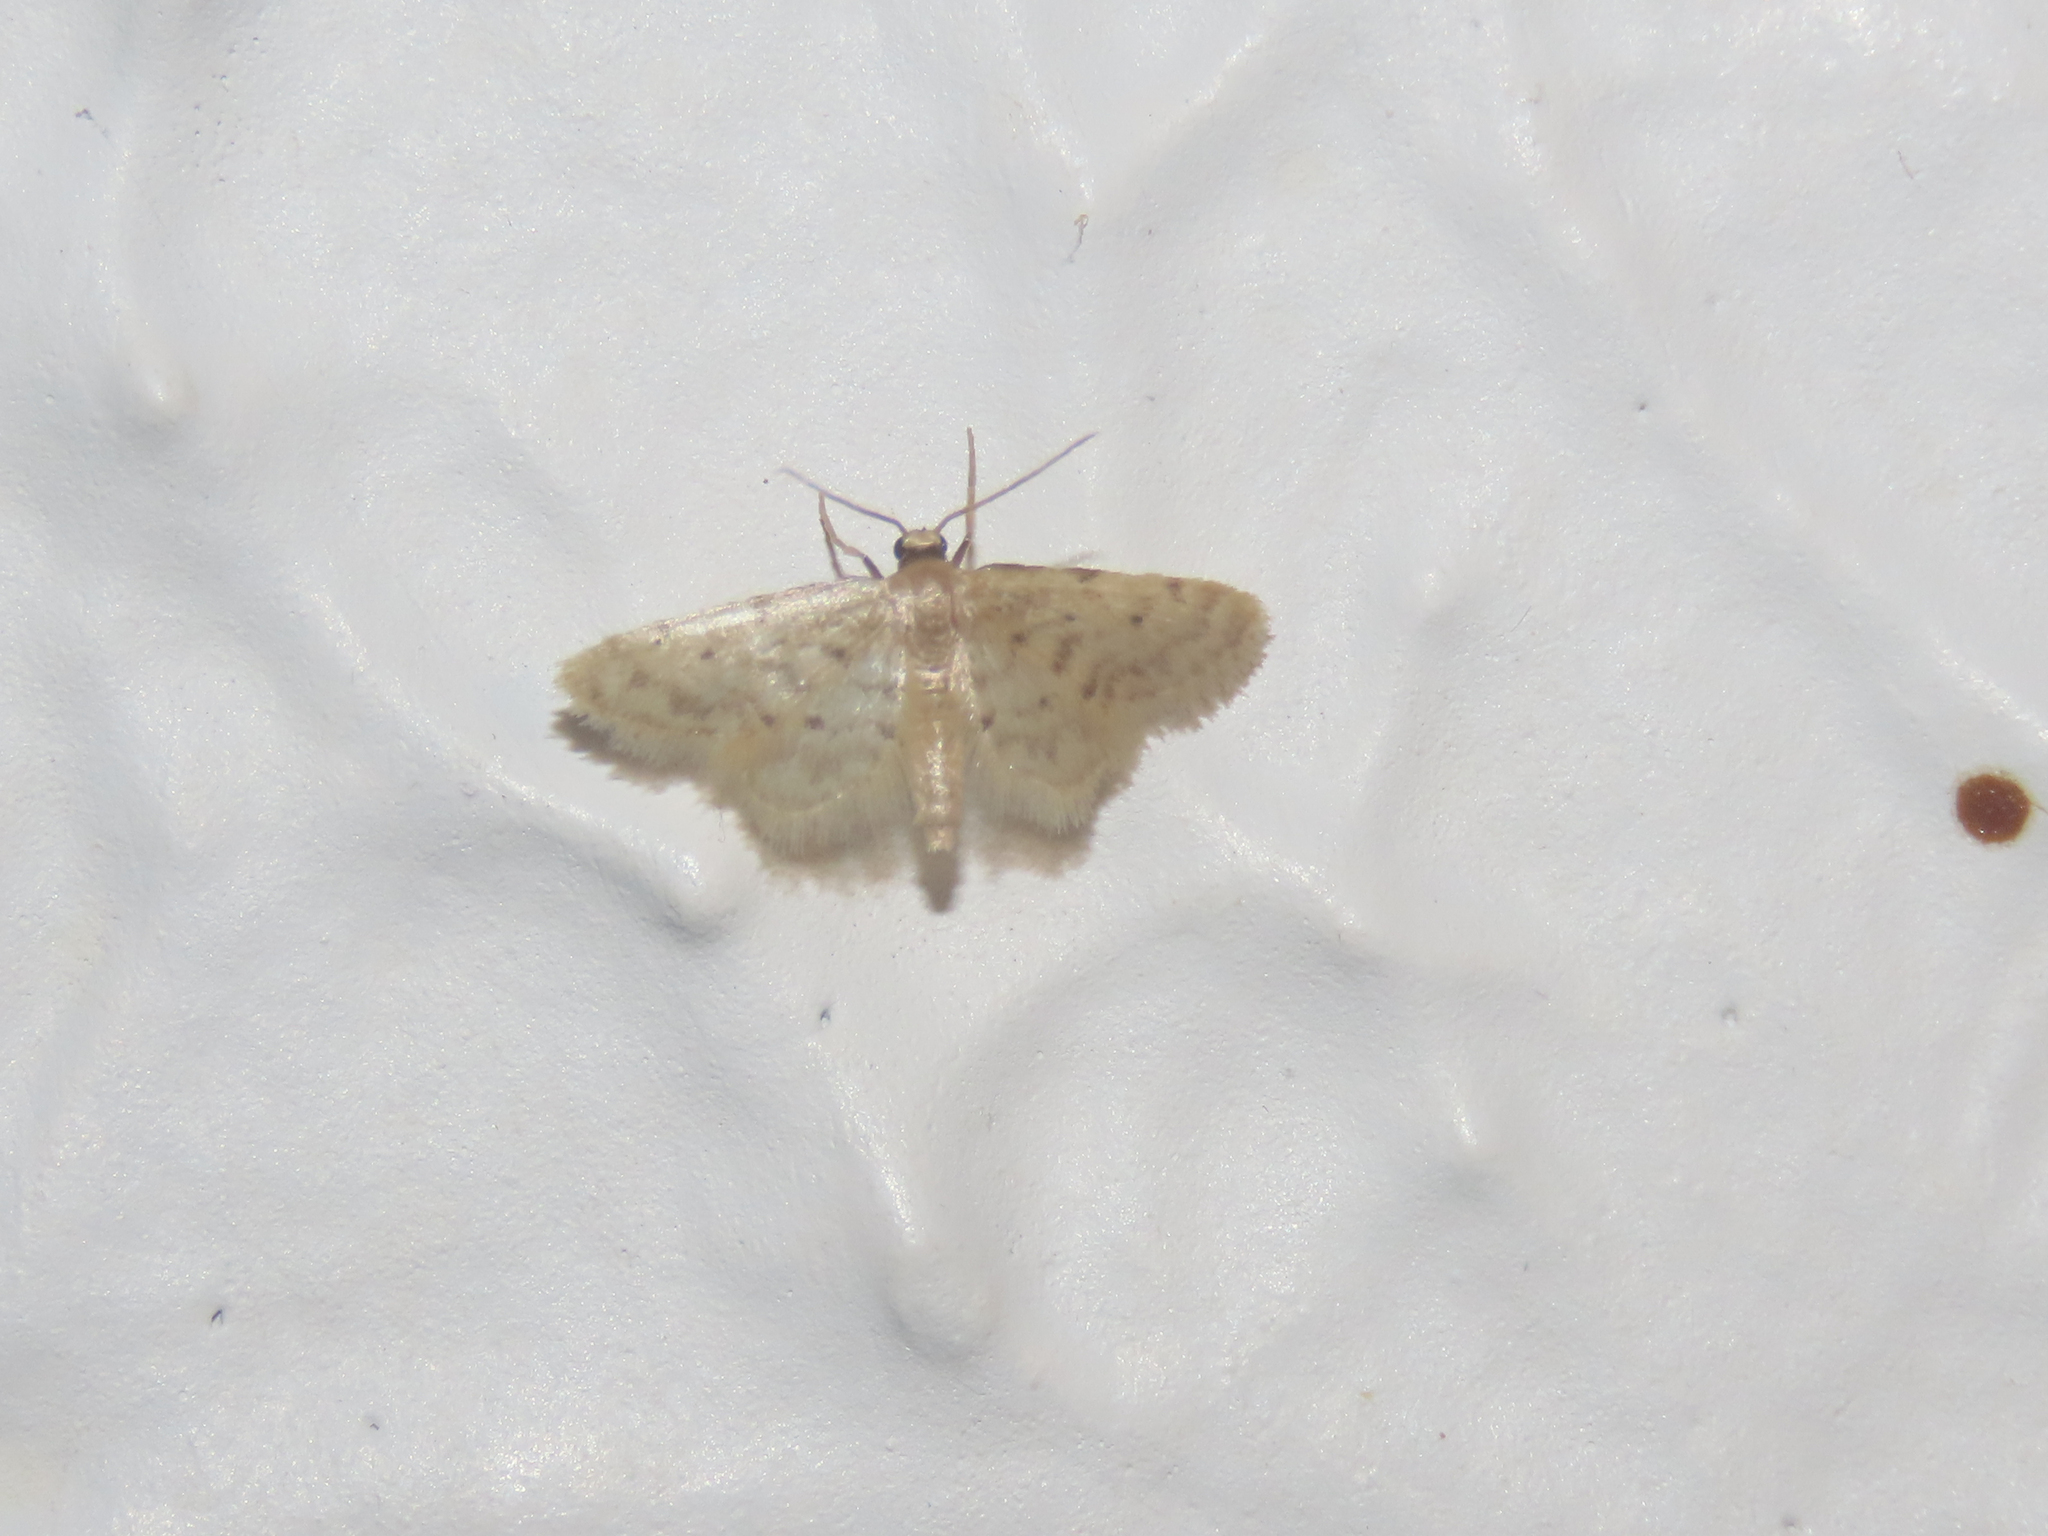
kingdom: Animalia
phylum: Arthropoda
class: Insecta
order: Lepidoptera
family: Geometridae
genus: Idaea
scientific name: Idaea bonifata
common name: Fortunate wave
